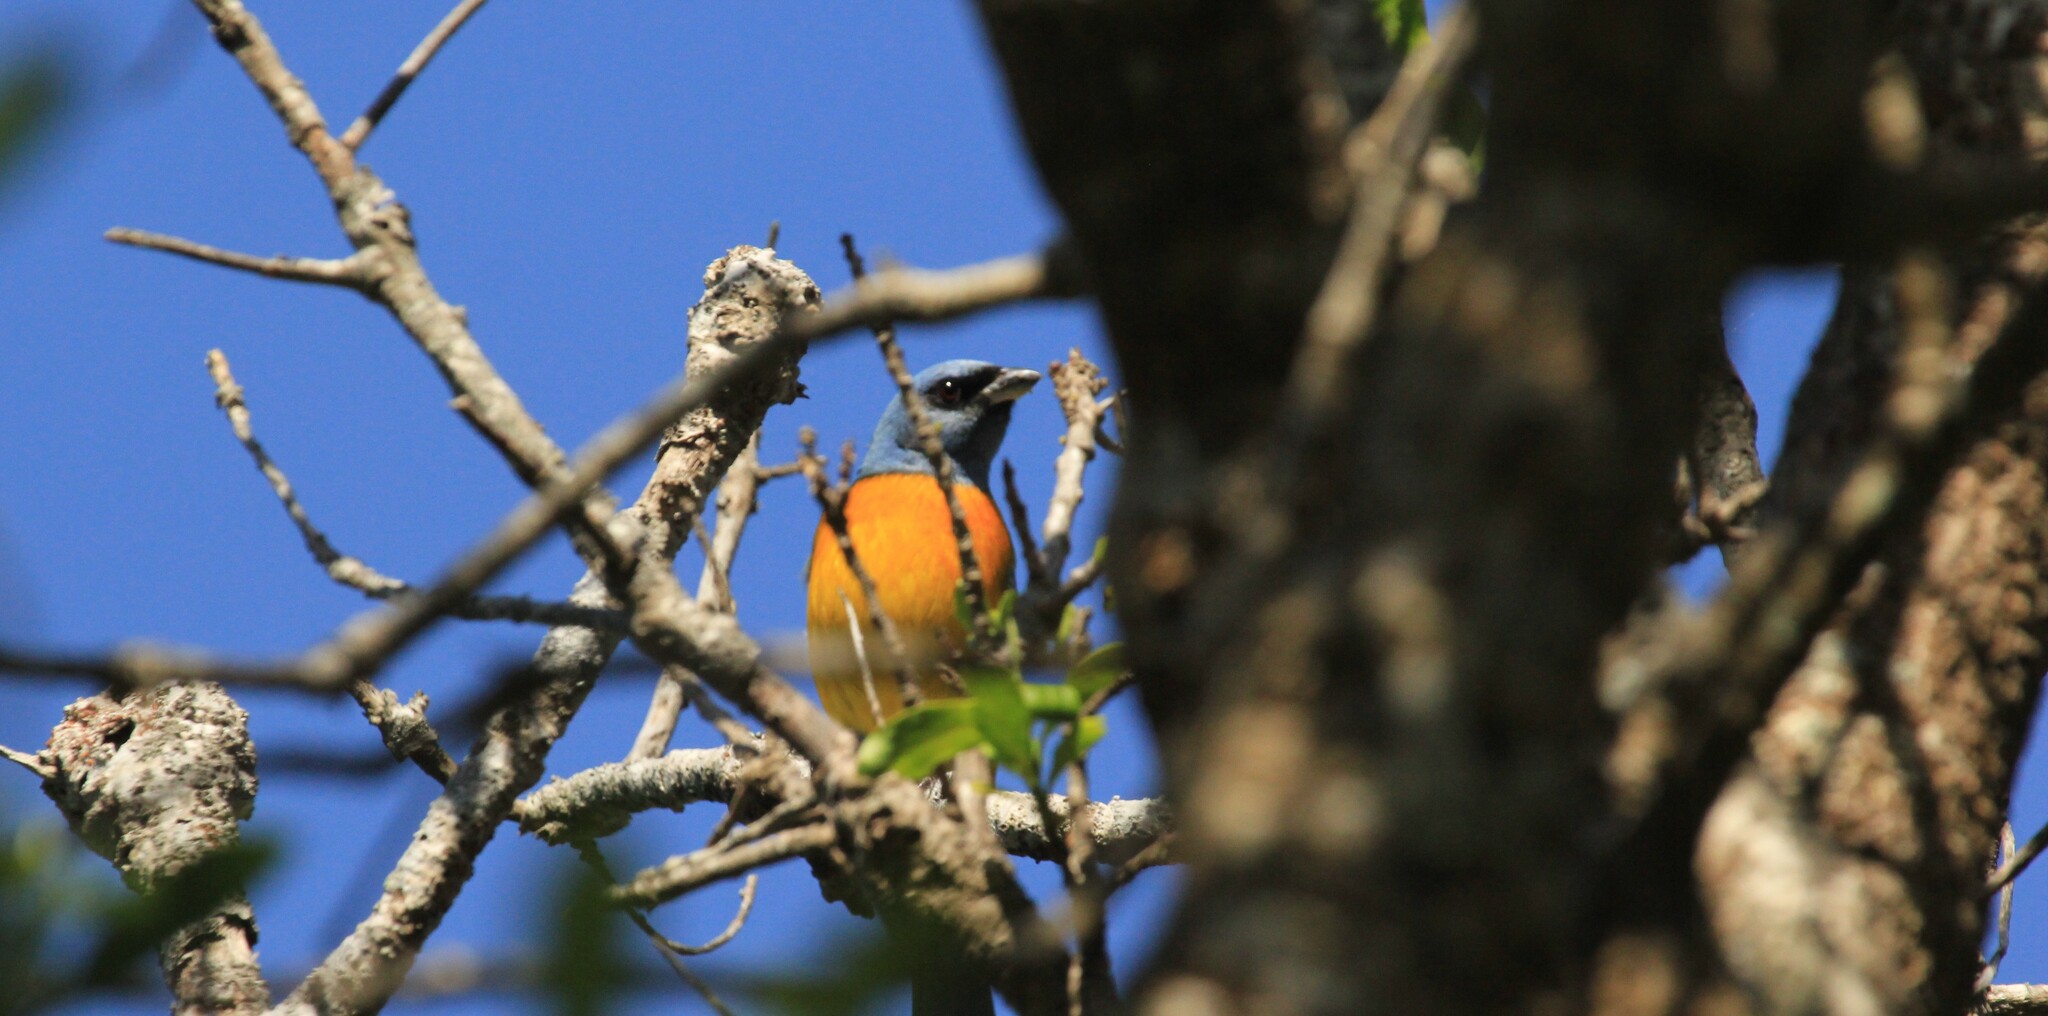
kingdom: Animalia
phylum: Chordata
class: Aves
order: Passeriformes
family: Thraupidae
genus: Rauenia
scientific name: Rauenia bonariensis
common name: Blue-and-yellow tanager
